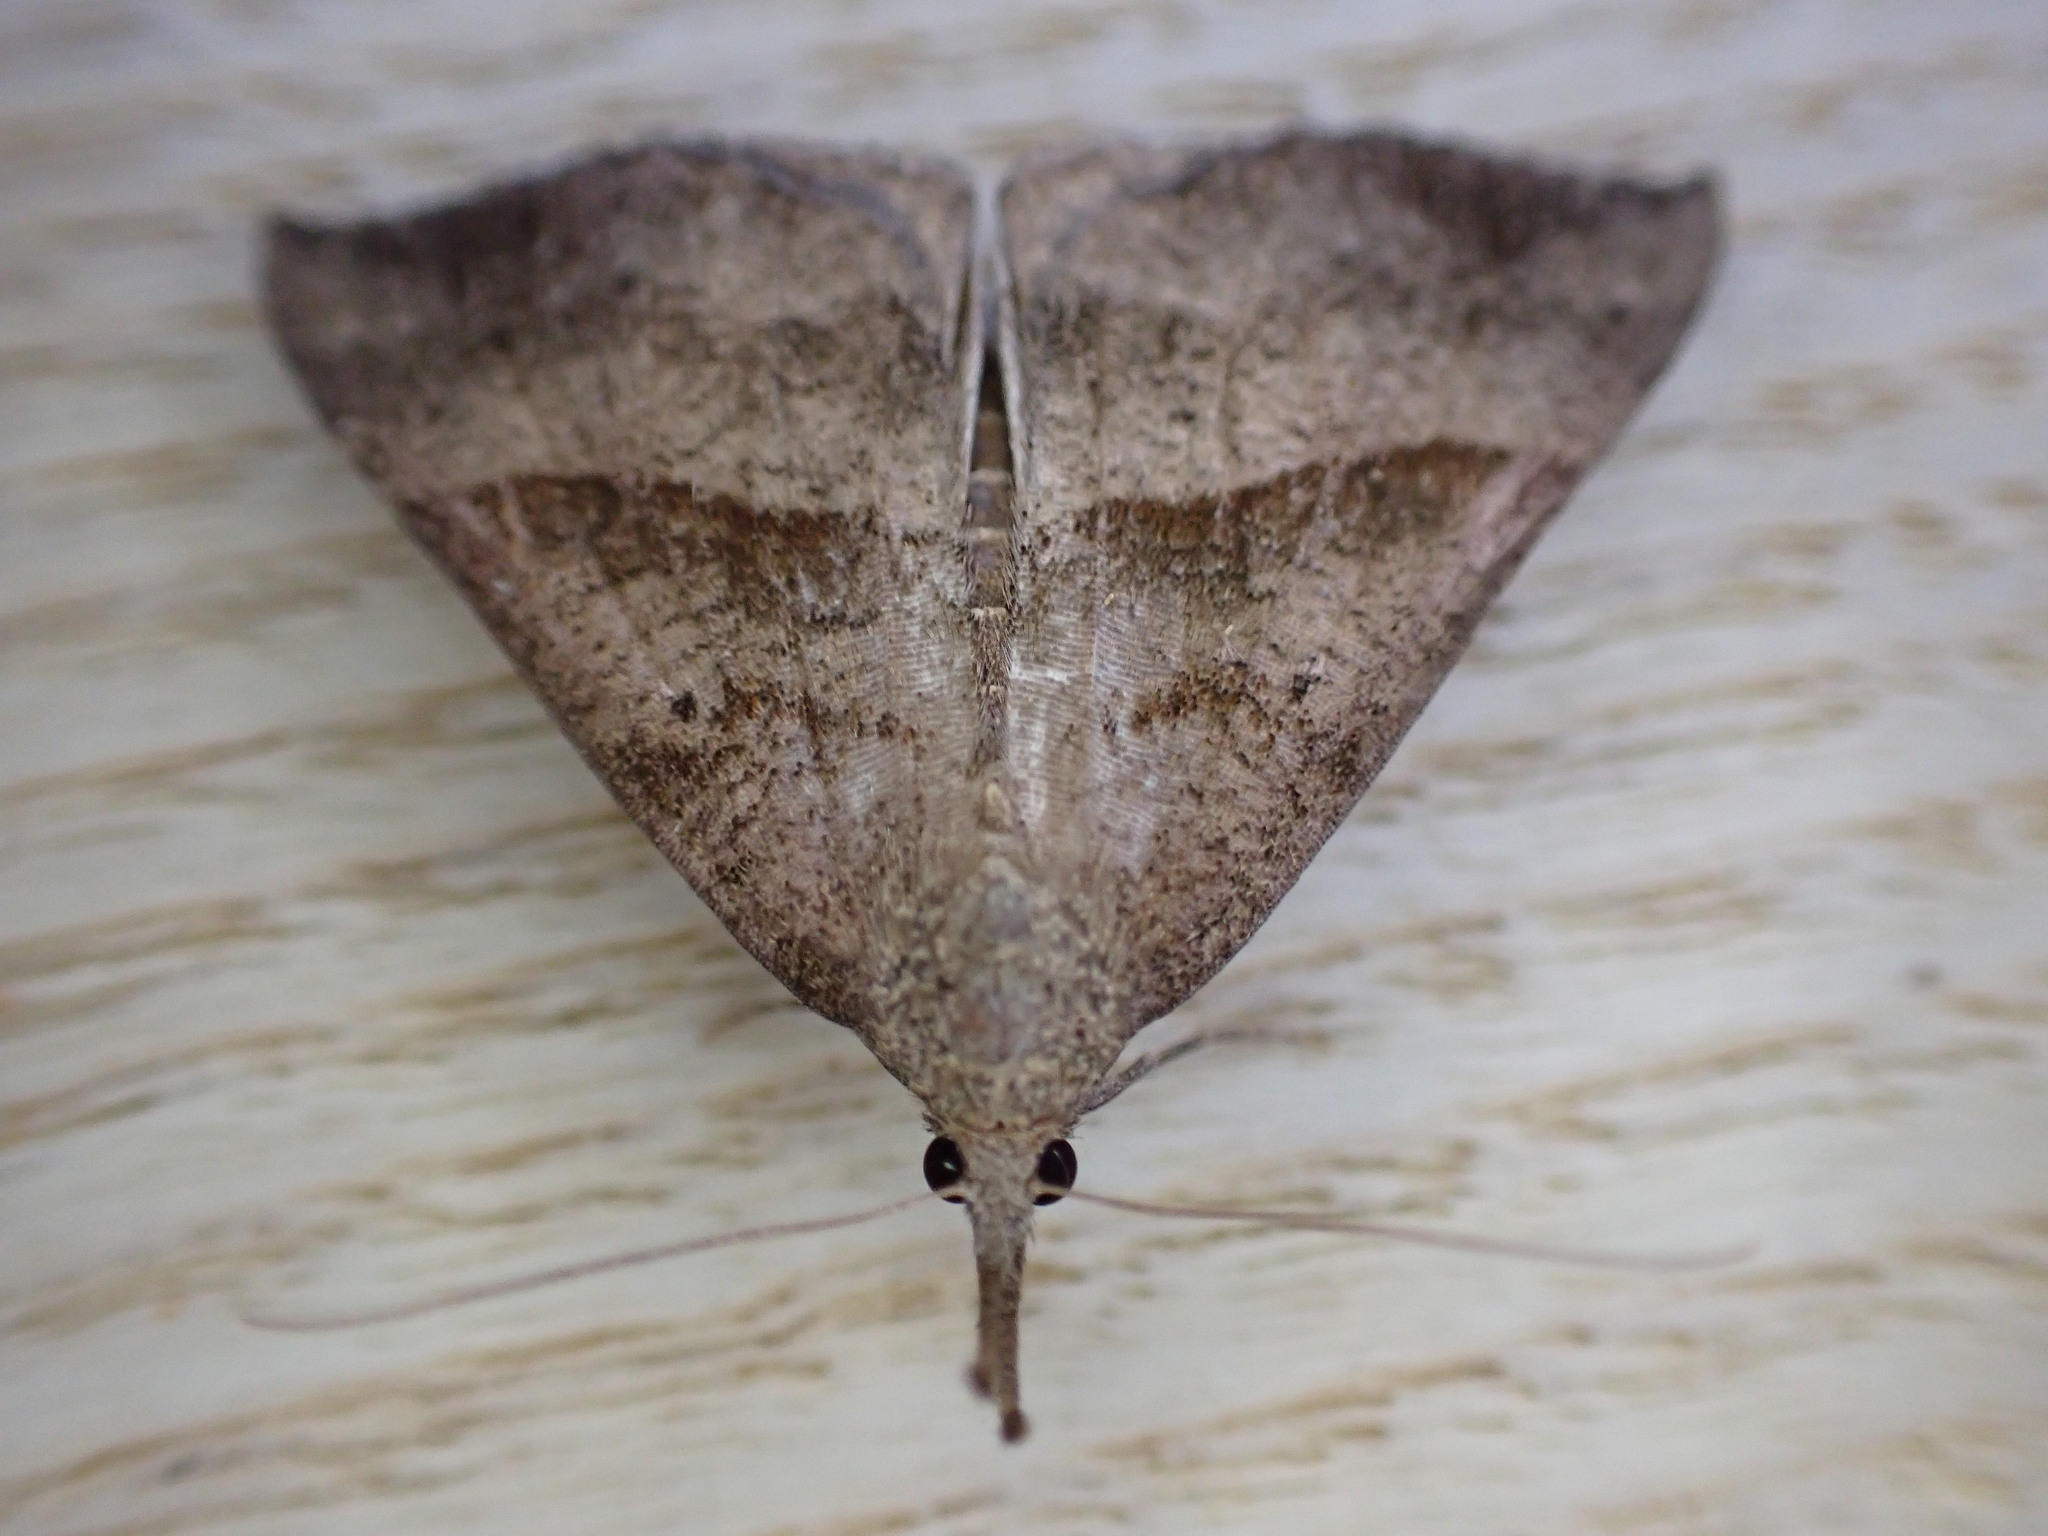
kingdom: Animalia
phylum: Arthropoda
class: Insecta
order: Lepidoptera
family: Erebidae
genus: Hypena
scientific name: Hypena proboscidalis
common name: Snout
